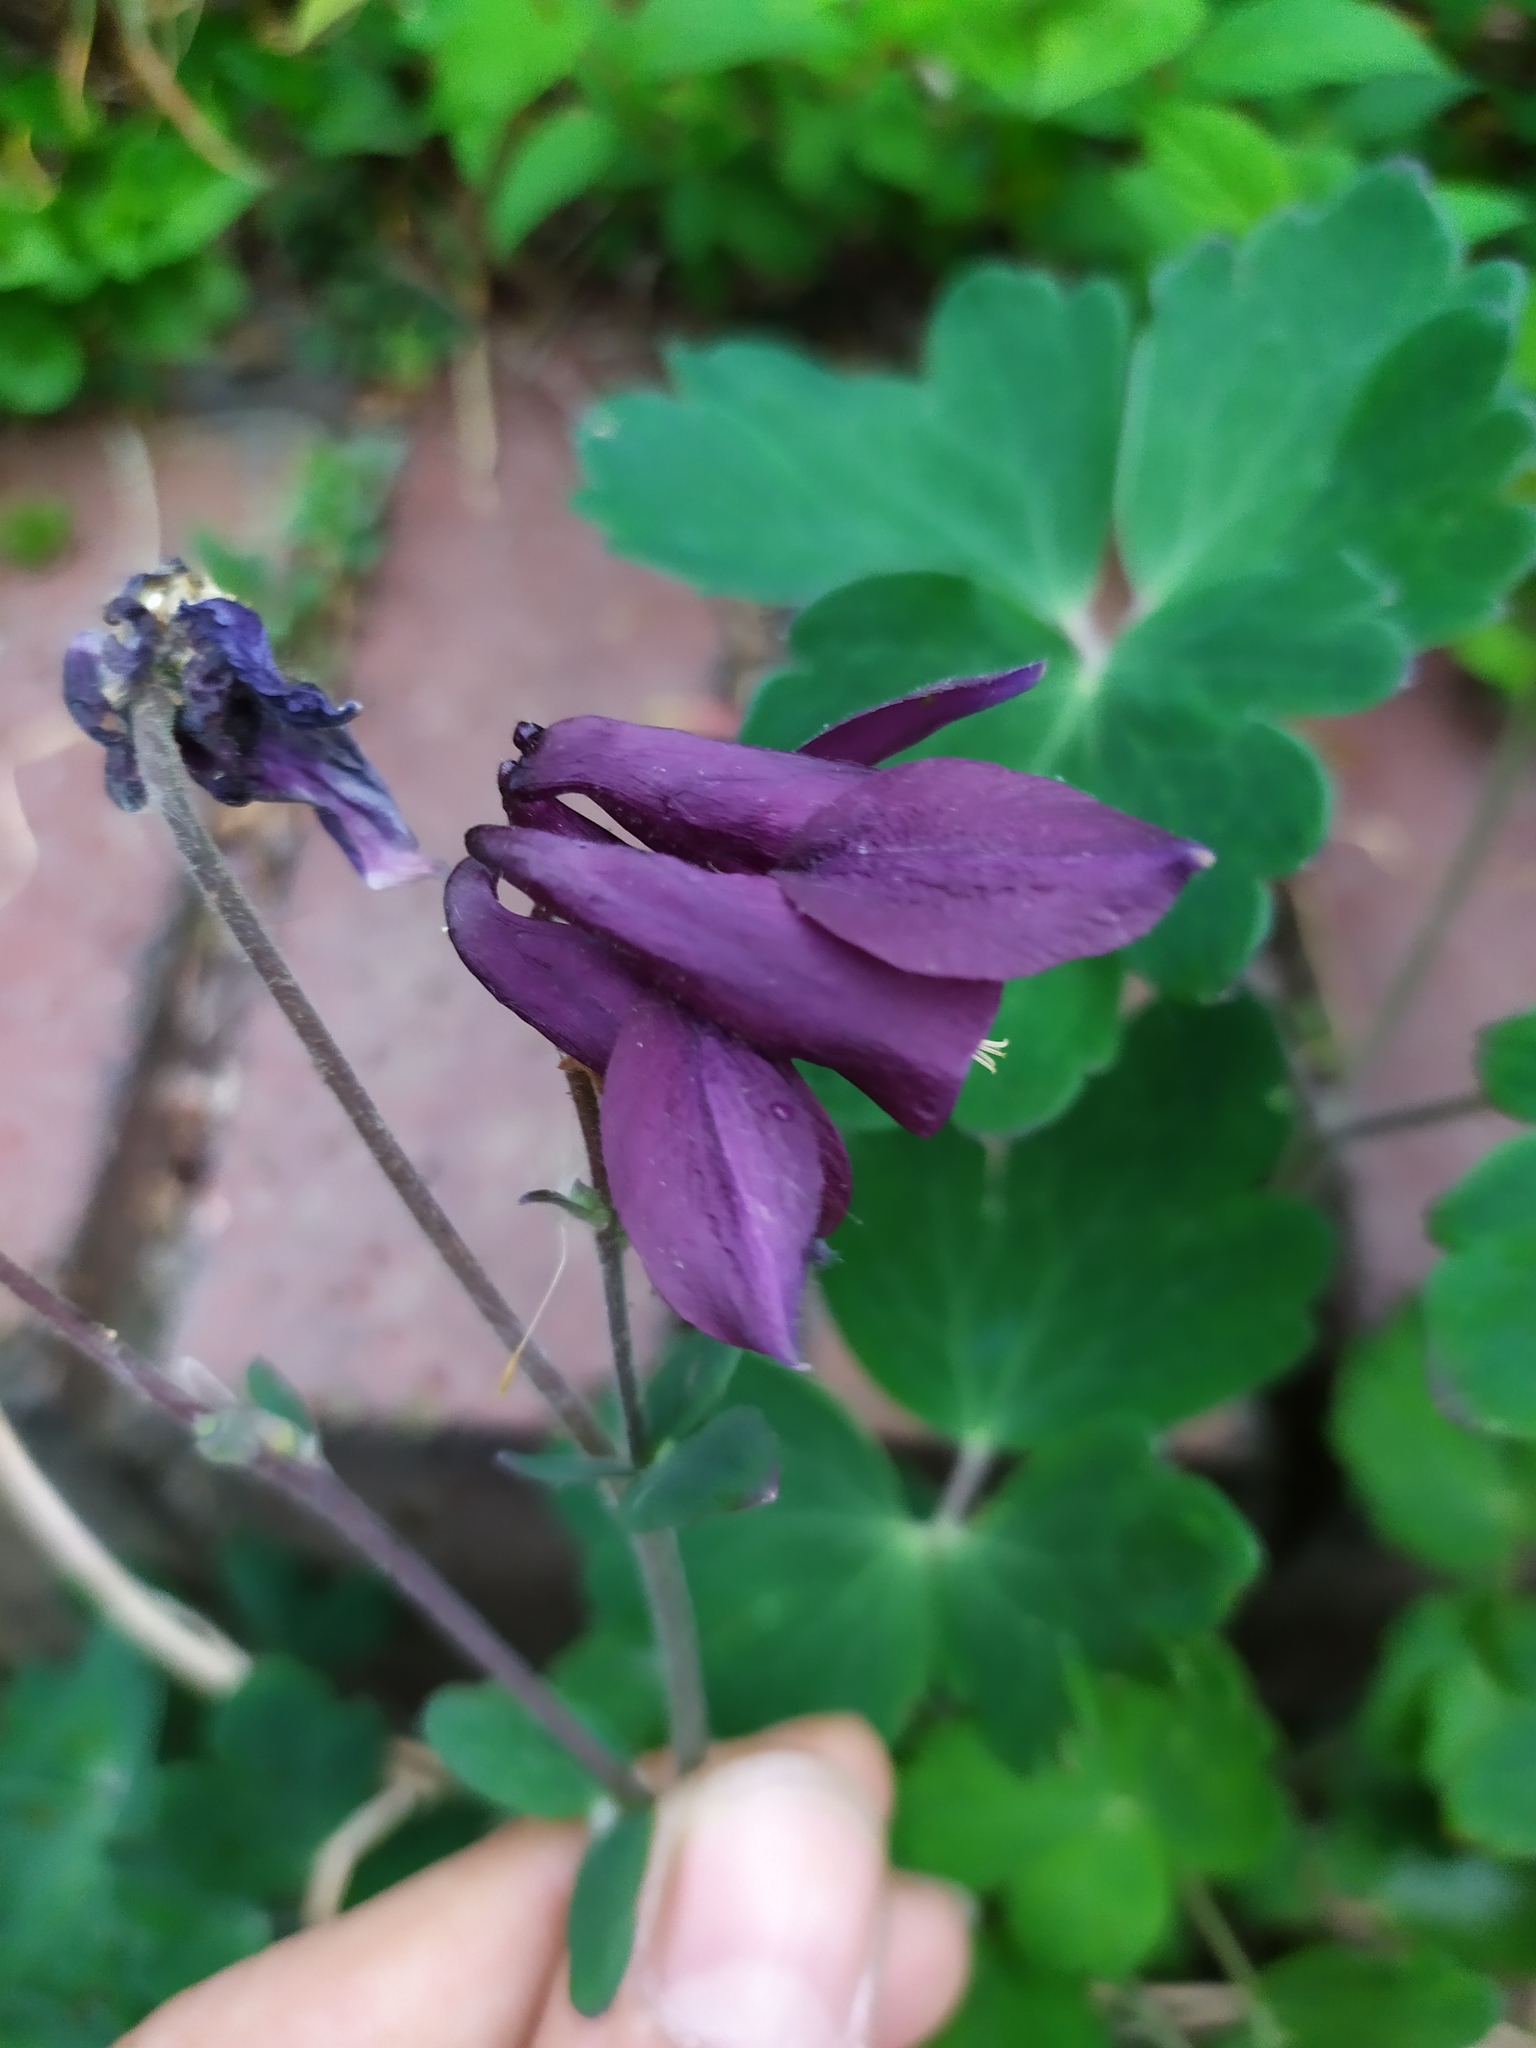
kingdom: Plantae
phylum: Tracheophyta
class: Magnoliopsida
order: Ranunculales
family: Ranunculaceae
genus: Aquilegia
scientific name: Aquilegia vulgaris
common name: Columbine
